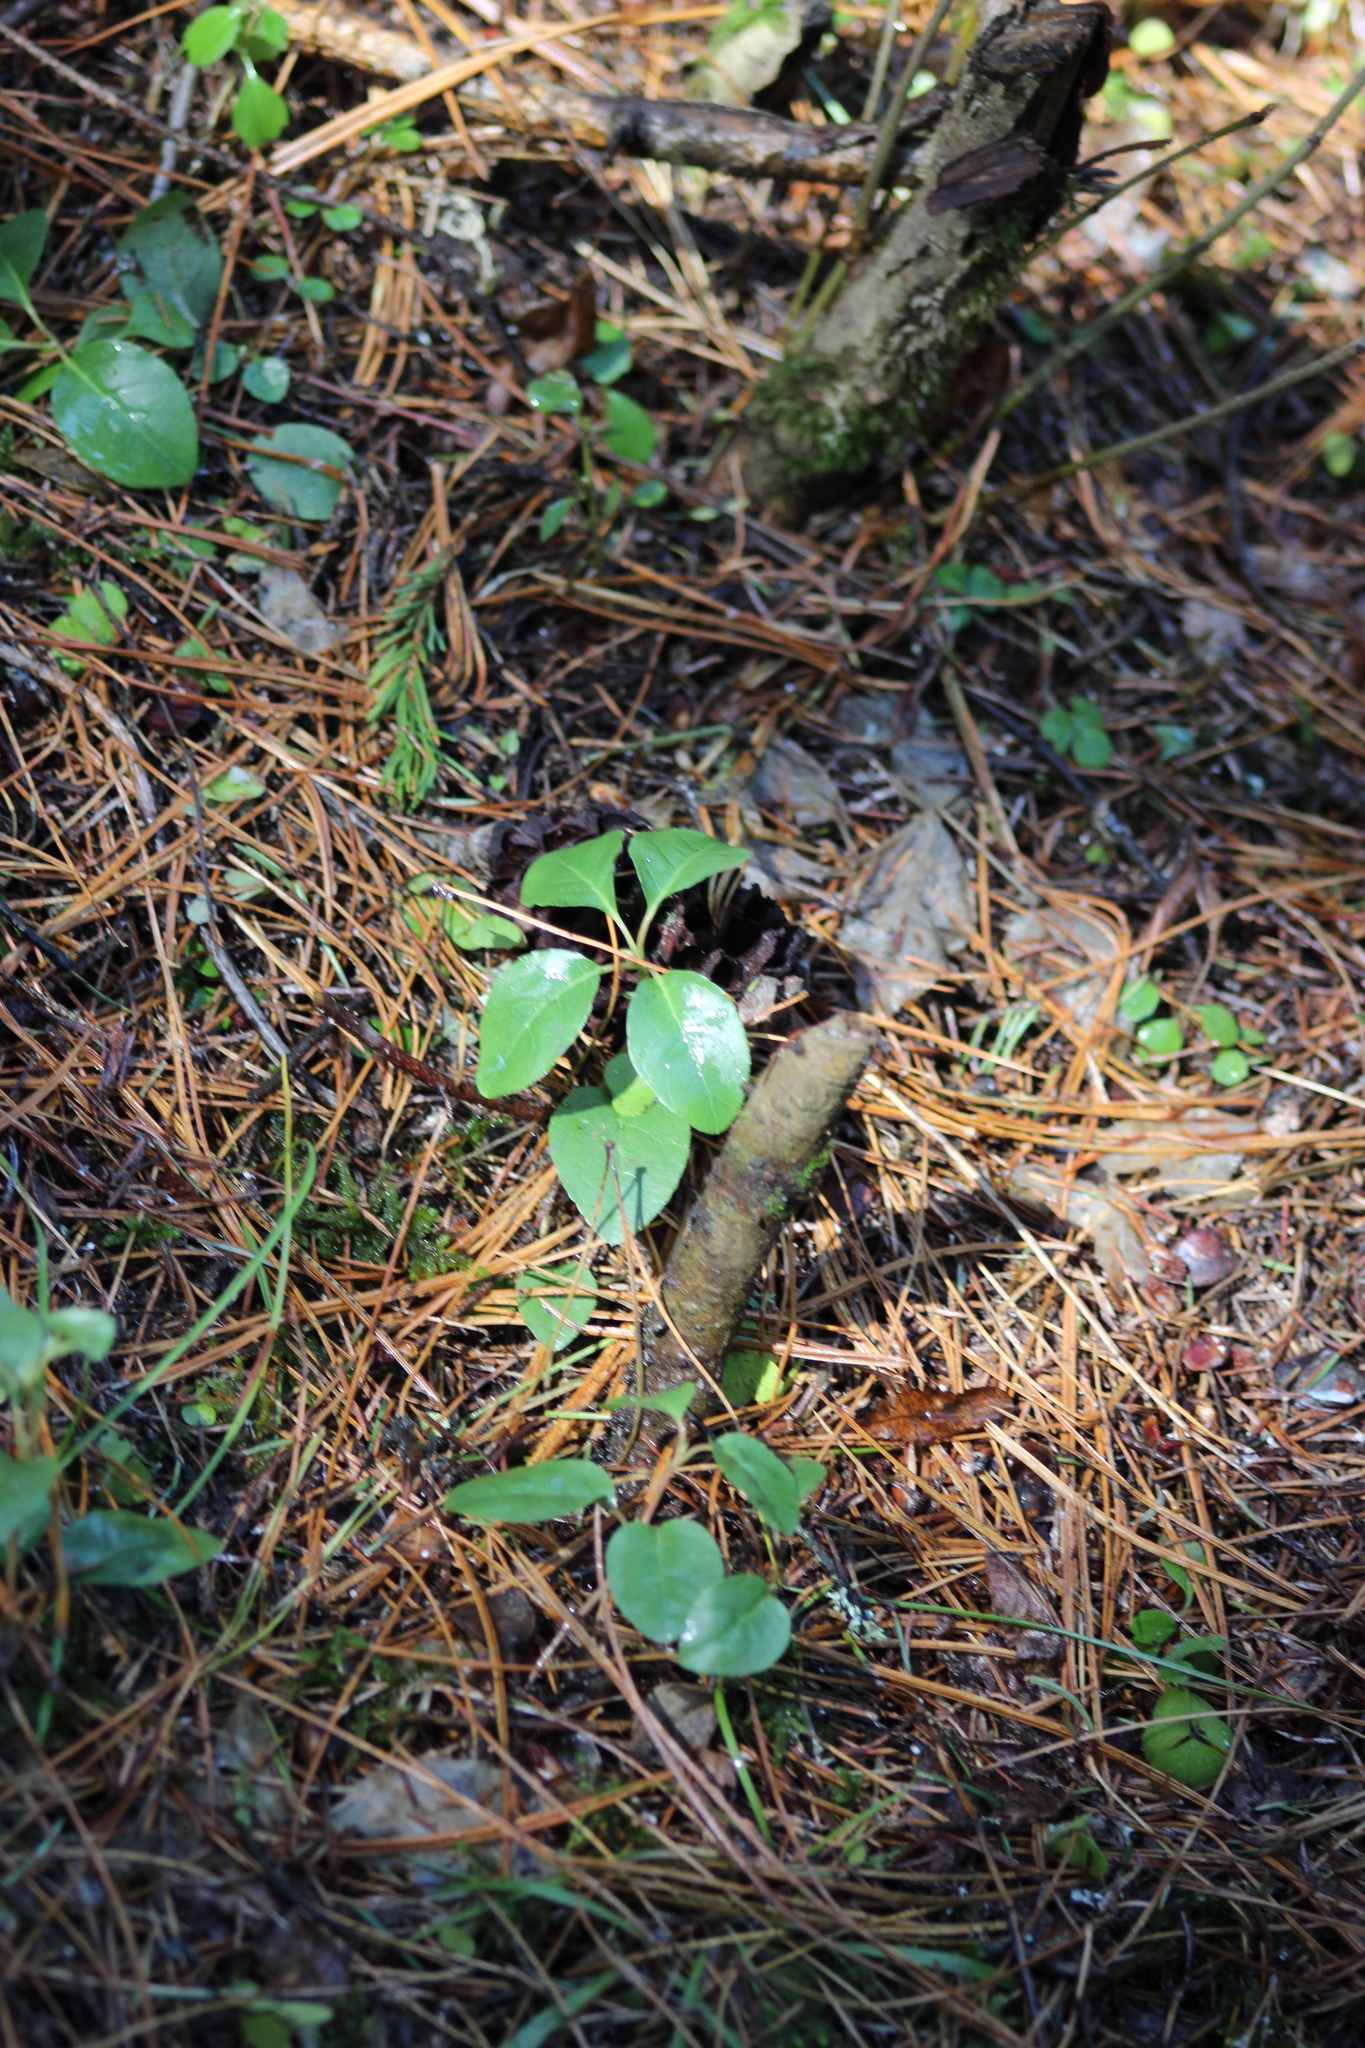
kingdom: Plantae
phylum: Tracheophyta
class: Magnoliopsida
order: Ericales
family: Ericaceae
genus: Orthilia
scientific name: Orthilia secunda
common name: One-sided orthilia
